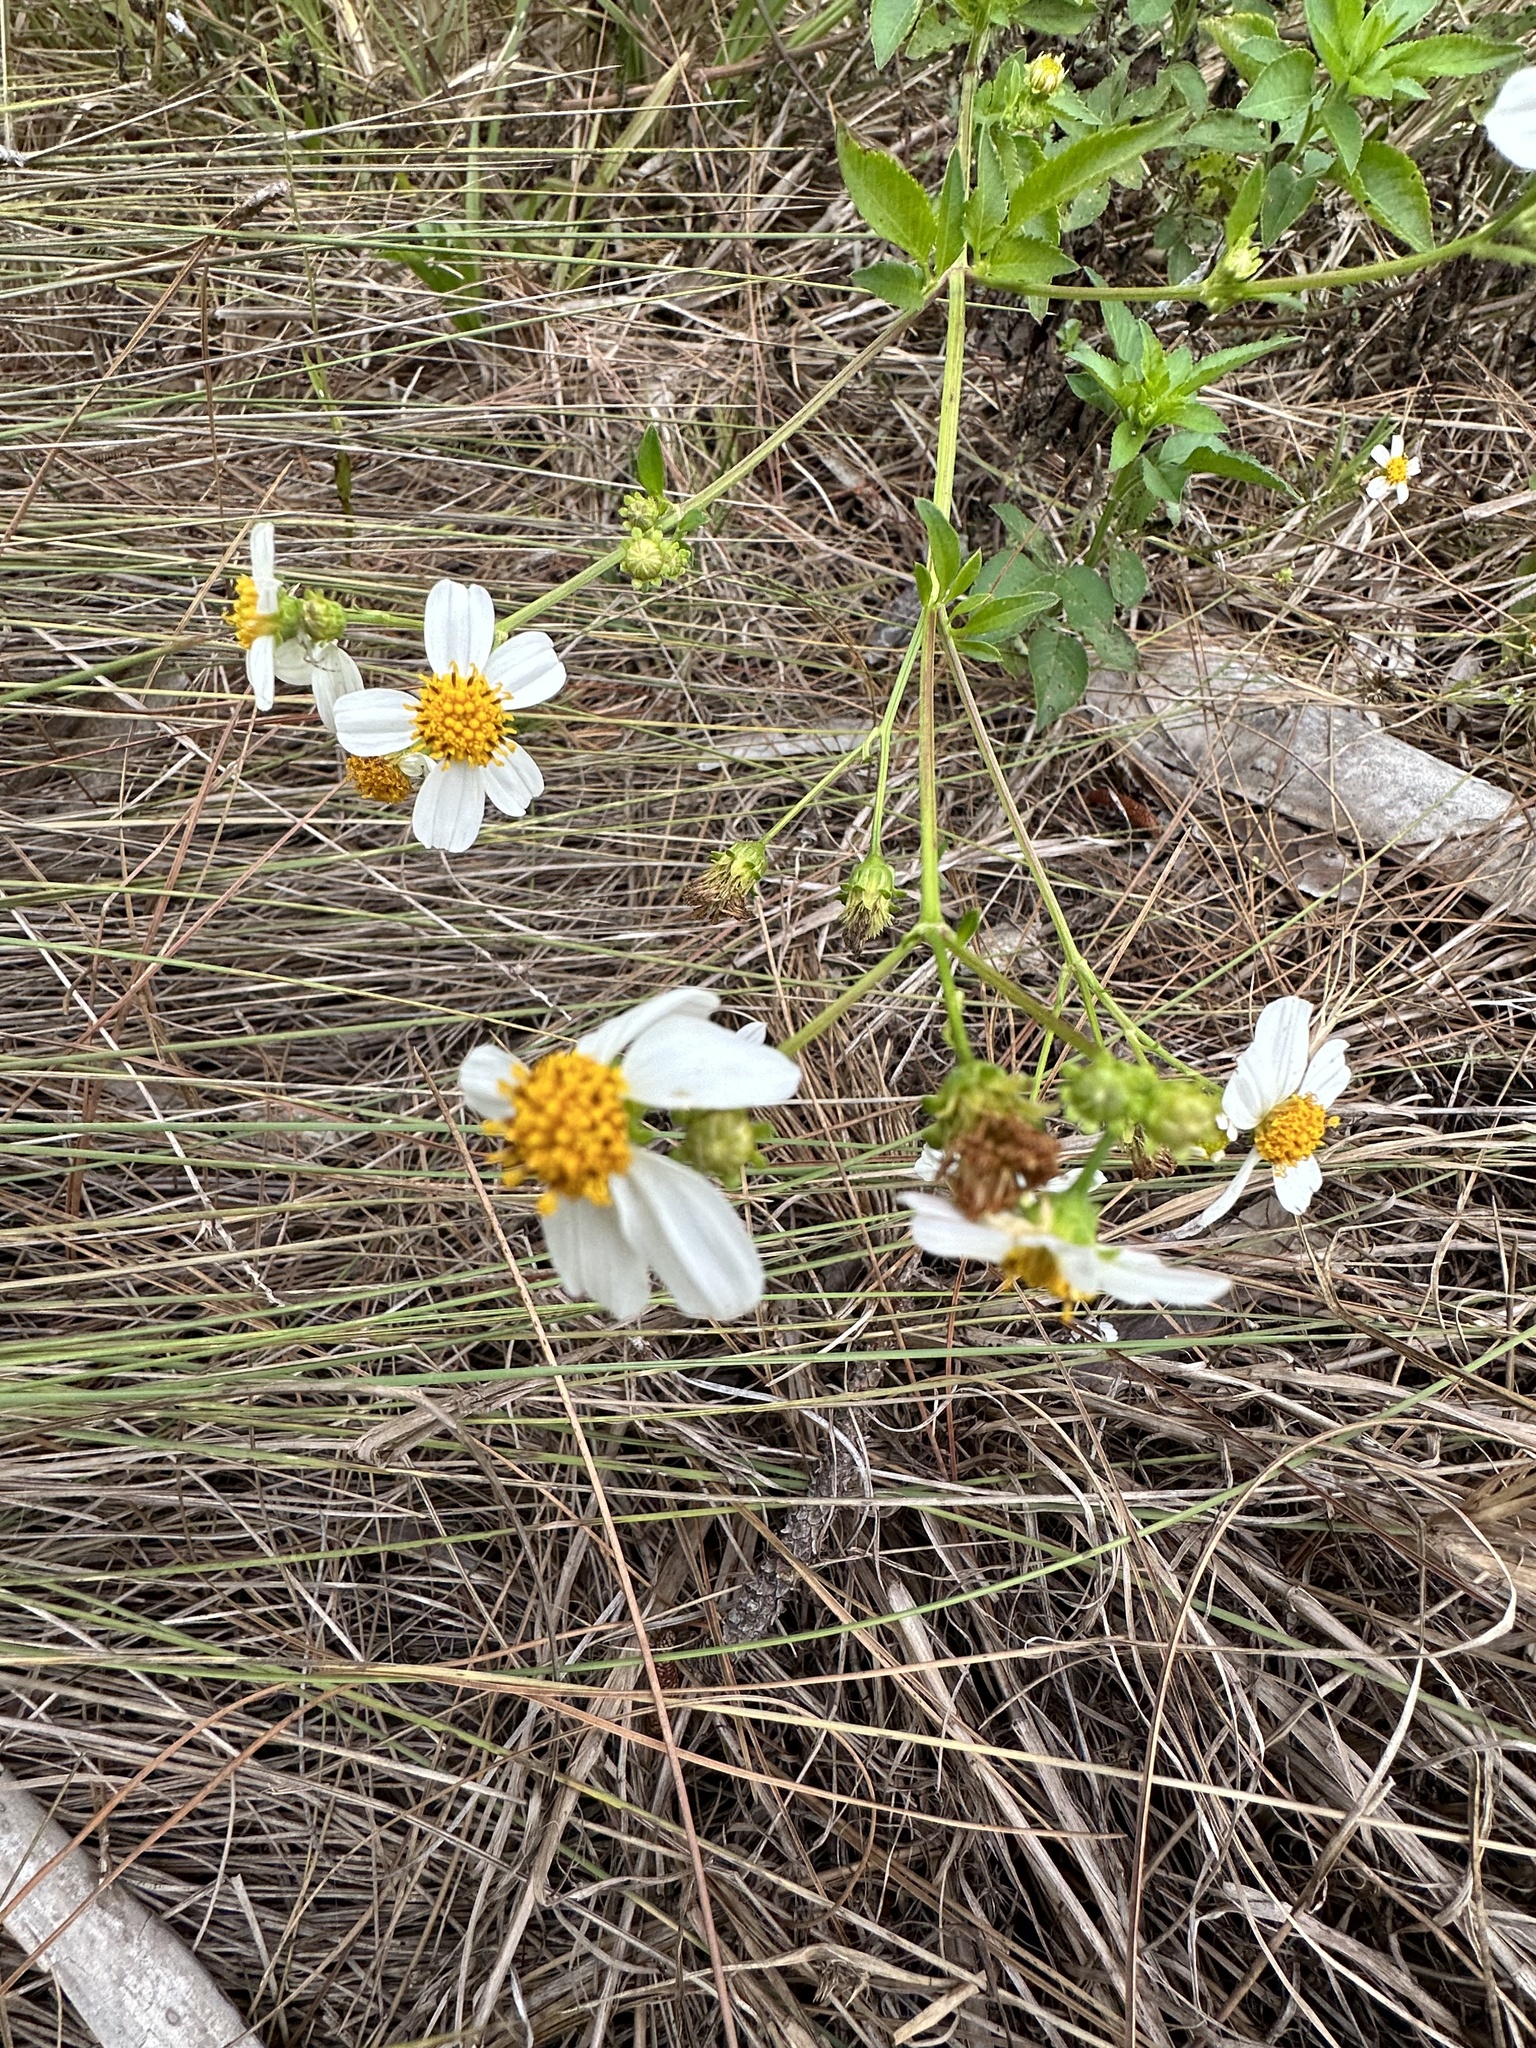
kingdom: Plantae
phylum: Tracheophyta
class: Magnoliopsida
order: Asterales
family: Asteraceae
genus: Bidens
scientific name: Bidens alba
